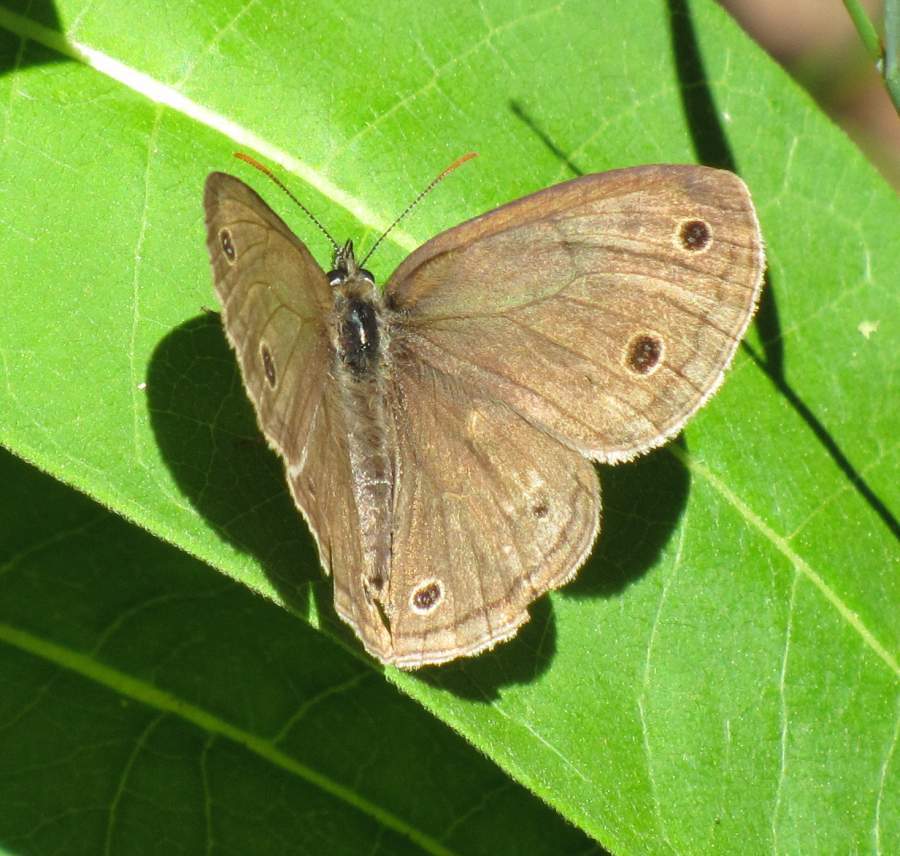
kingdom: Animalia
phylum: Arthropoda
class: Insecta
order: Lepidoptera
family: Nymphalidae
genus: Euptychia
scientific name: Euptychia cymela
